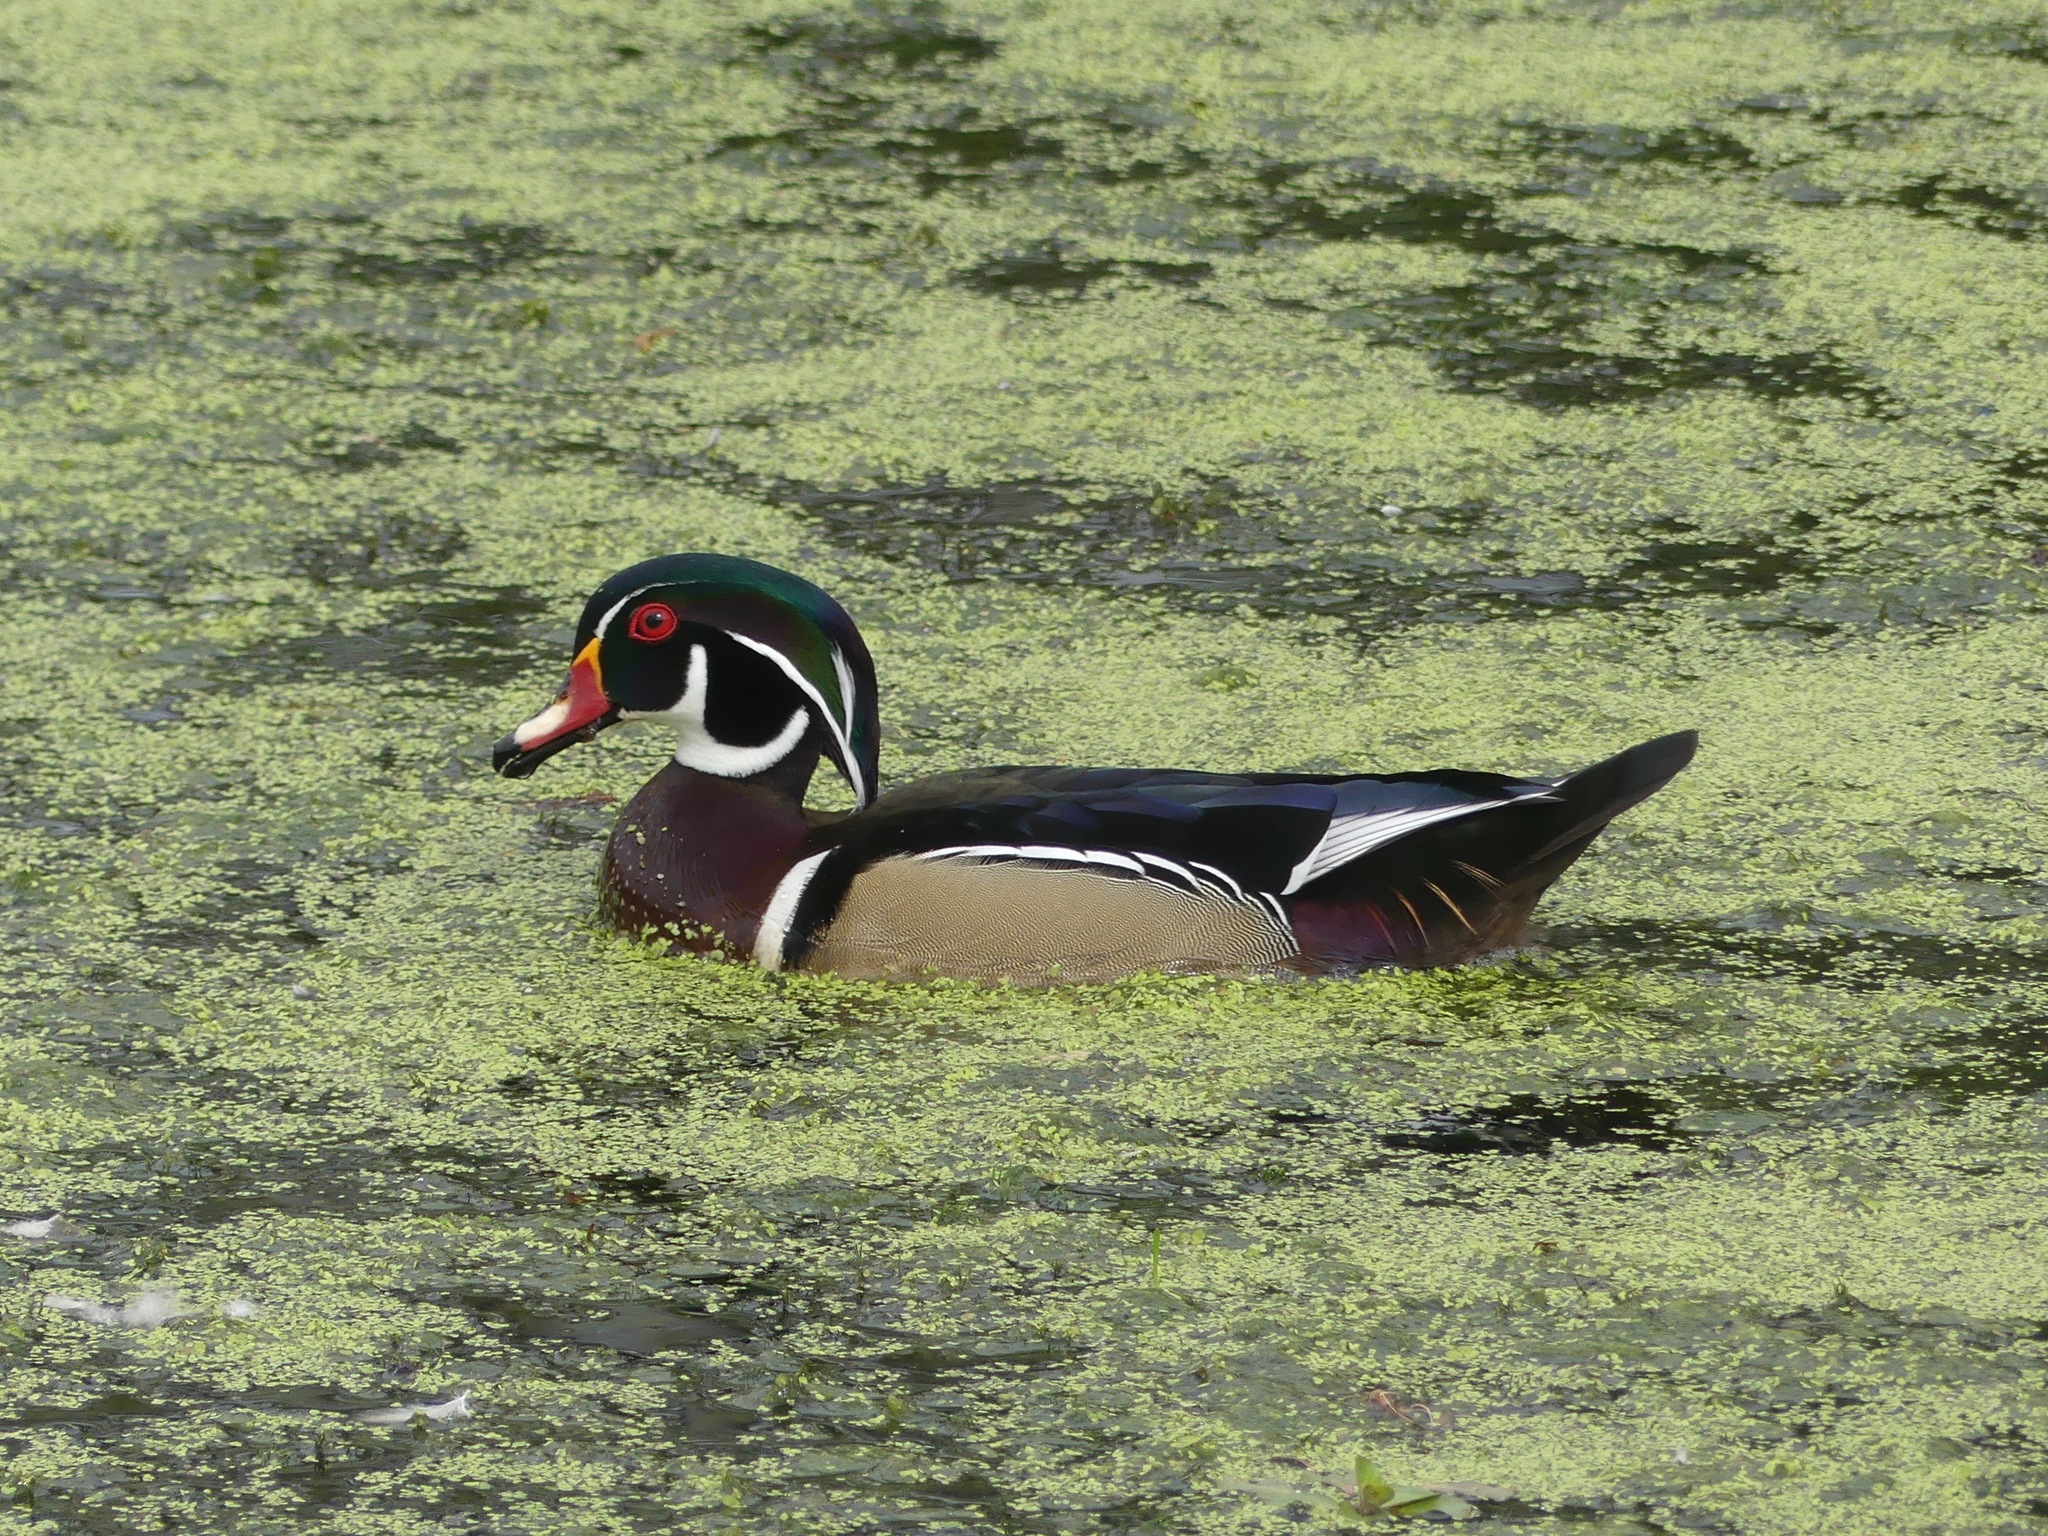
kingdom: Animalia
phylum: Chordata
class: Aves
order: Anseriformes
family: Anatidae
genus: Aix
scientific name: Aix sponsa
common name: Wood duck
